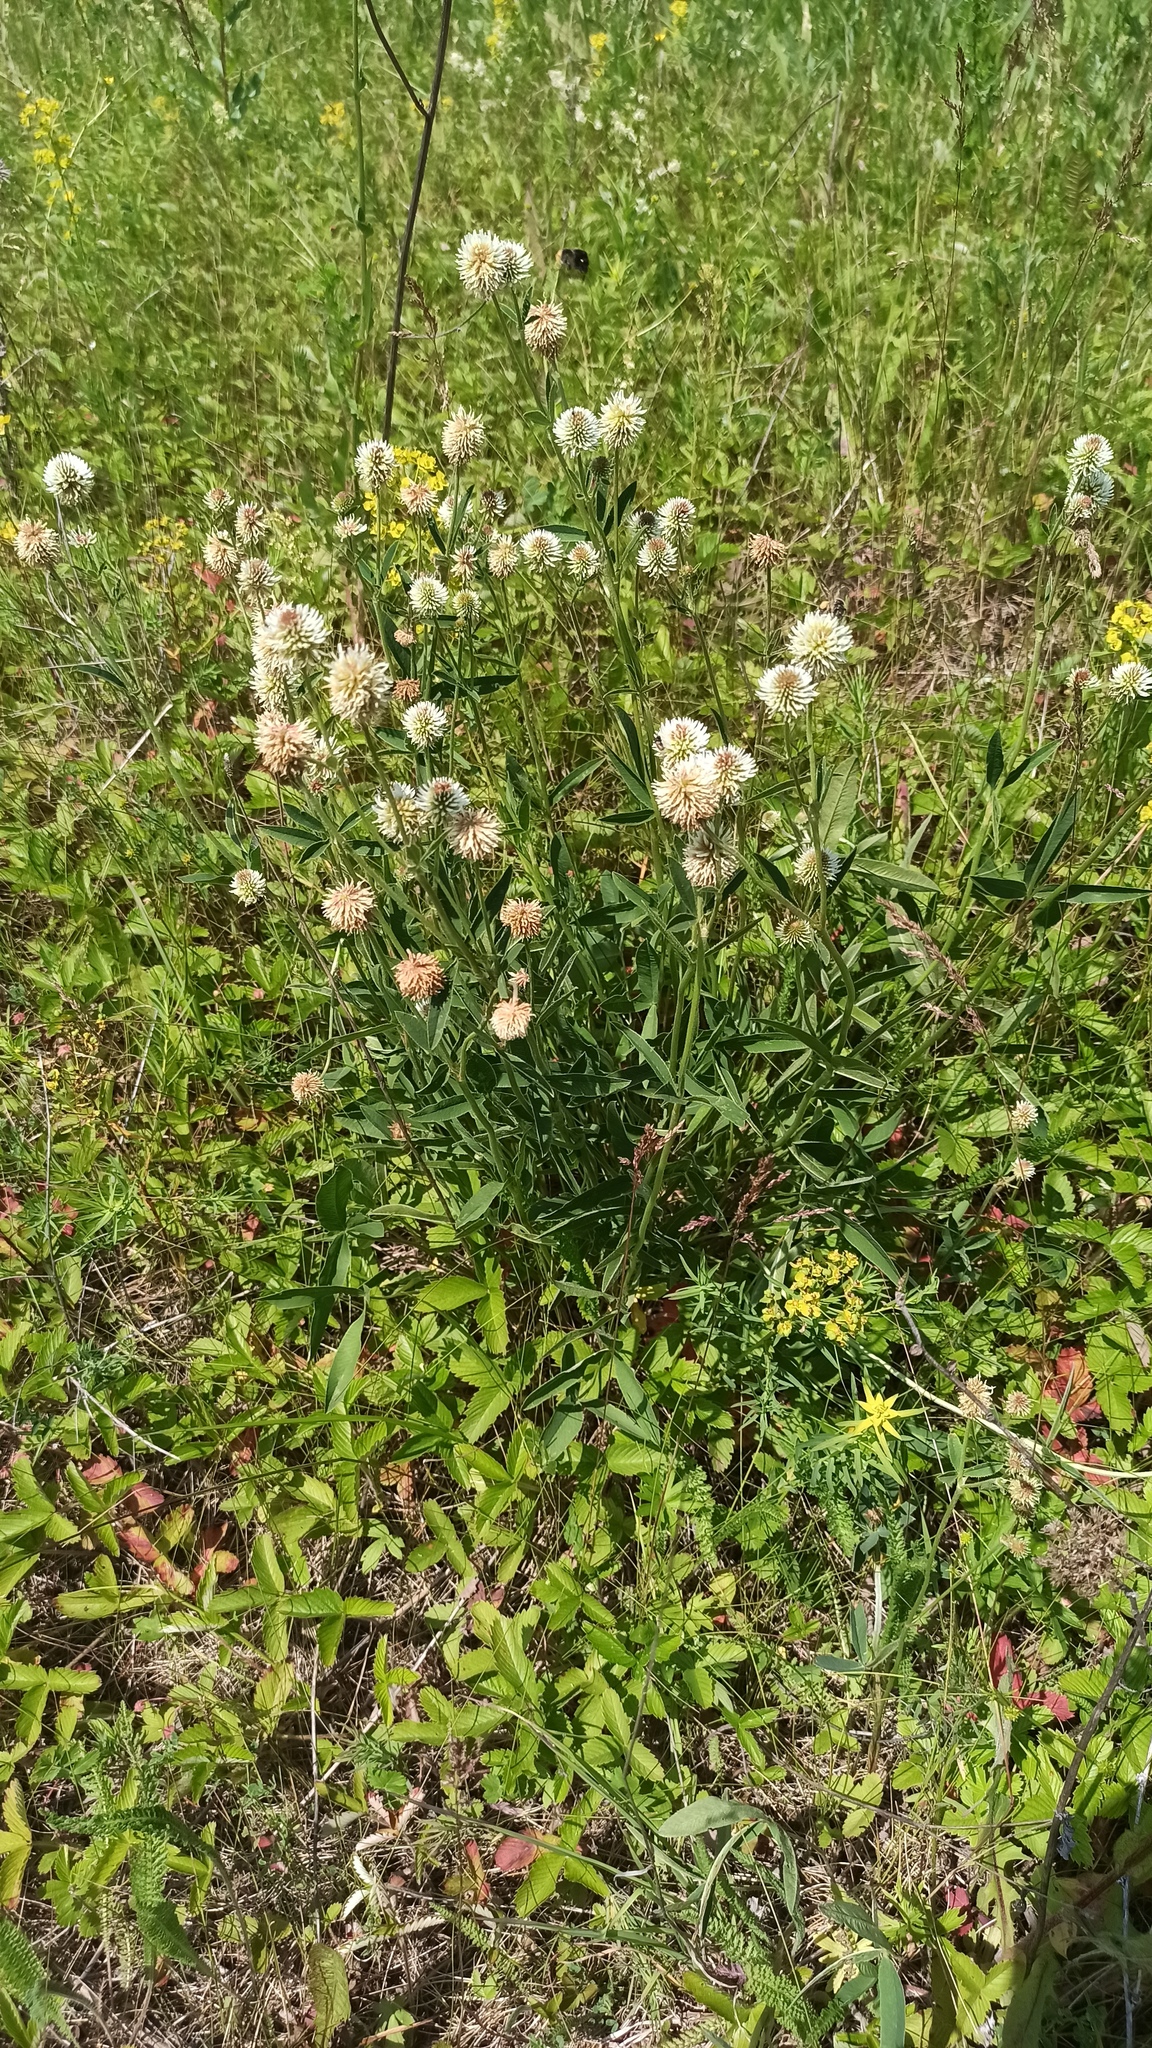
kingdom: Plantae
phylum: Tracheophyta
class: Magnoliopsida
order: Fabales
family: Fabaceae
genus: Trifolium
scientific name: Trifolium montanum
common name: Mountain clover
